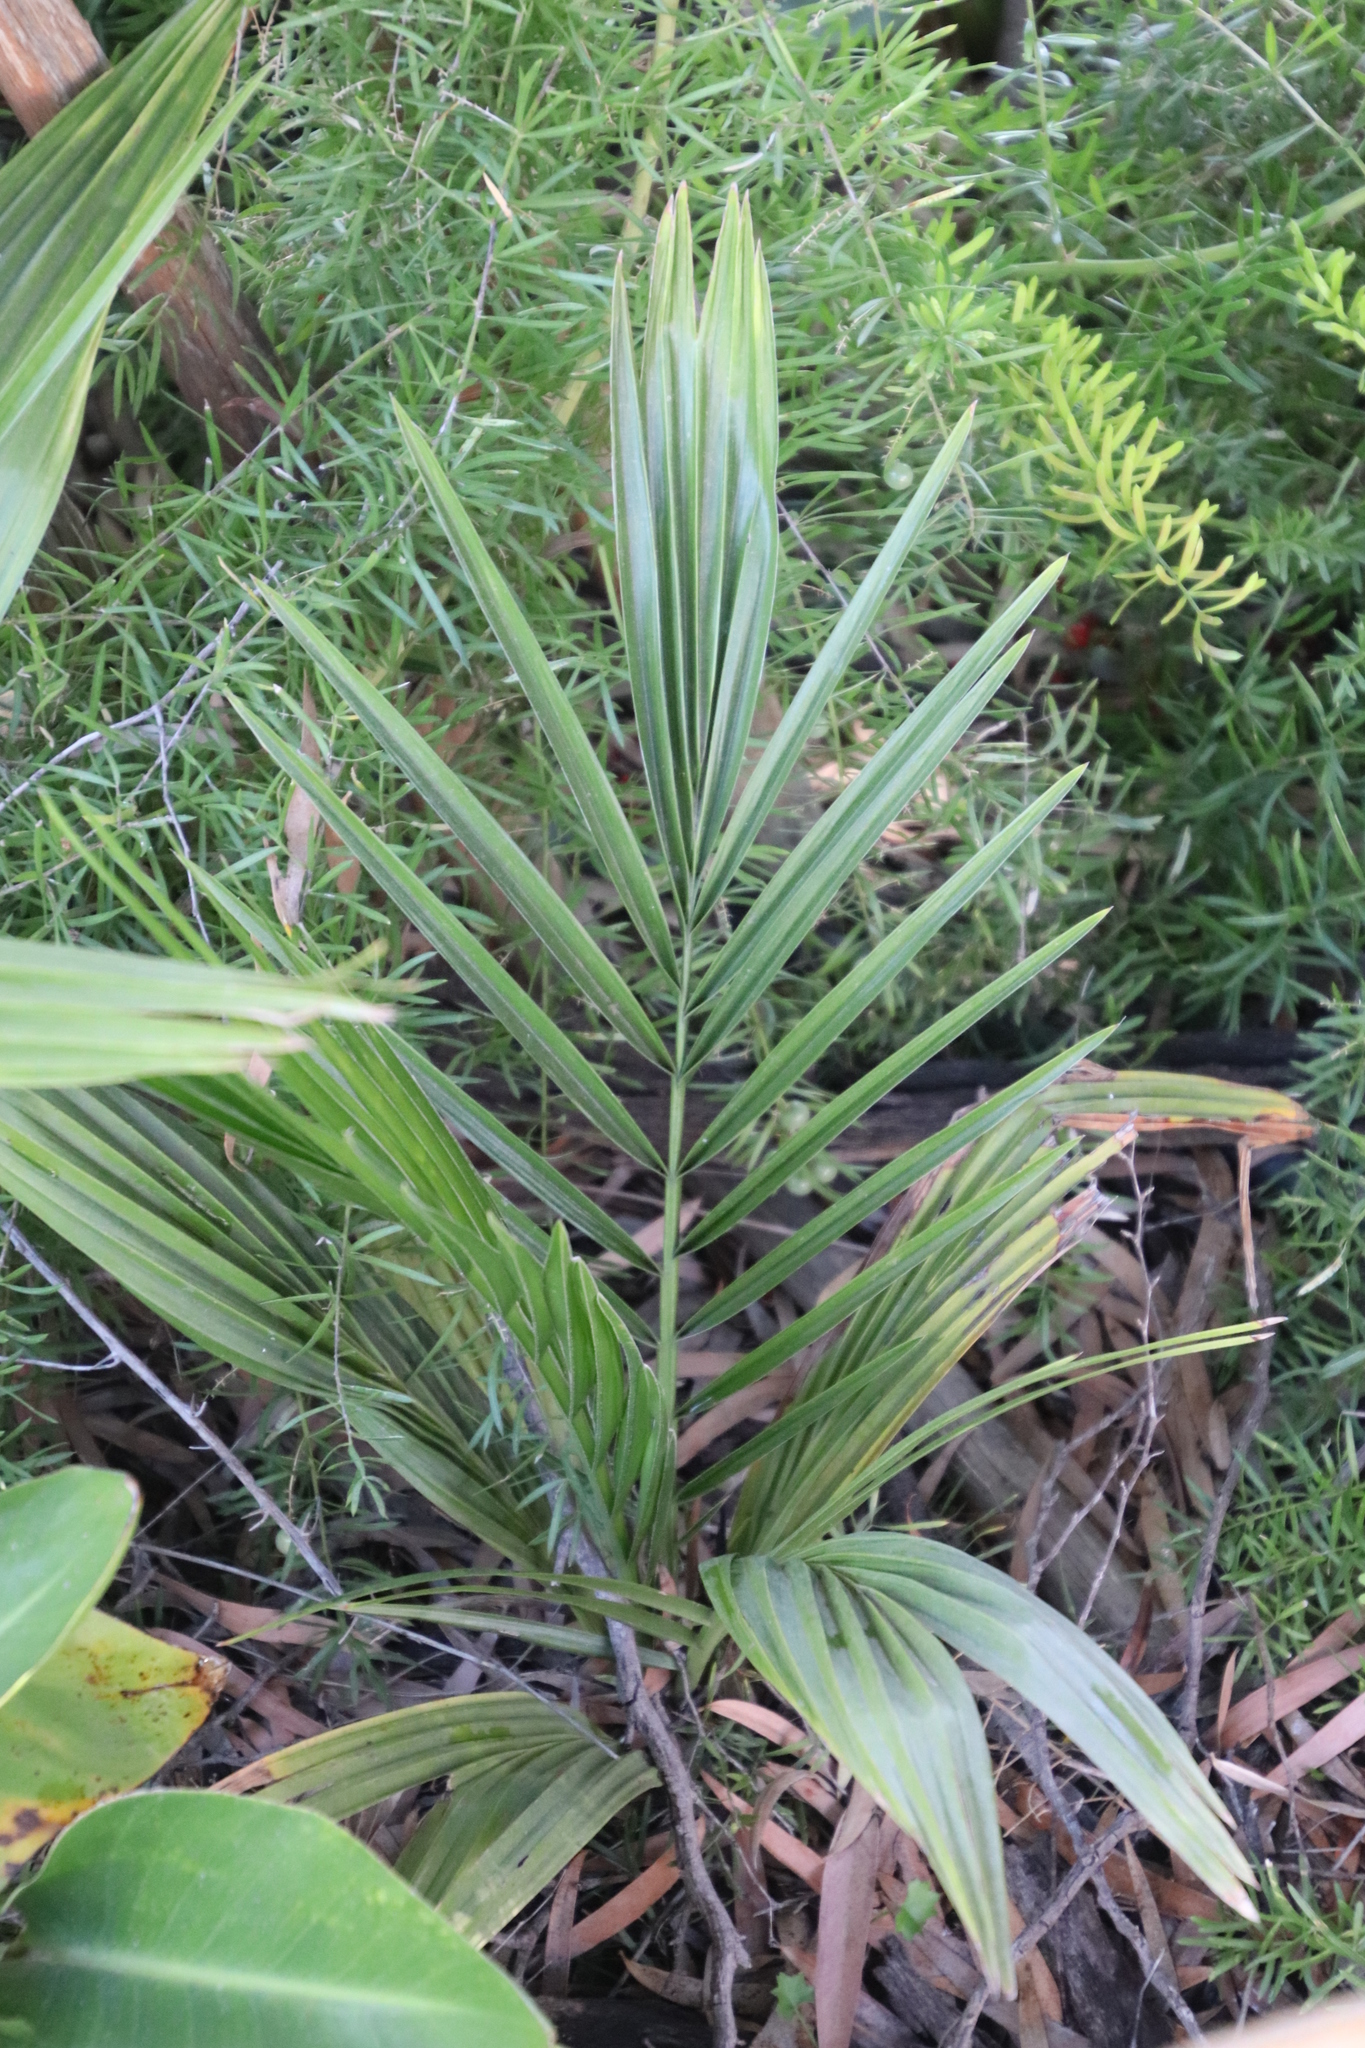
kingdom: Plantae
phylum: Tracheophyta
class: Liliopsida
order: Arecales
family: Arecaceae
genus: Phoenix
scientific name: Phoenix canariensis
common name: Canary island date palm
